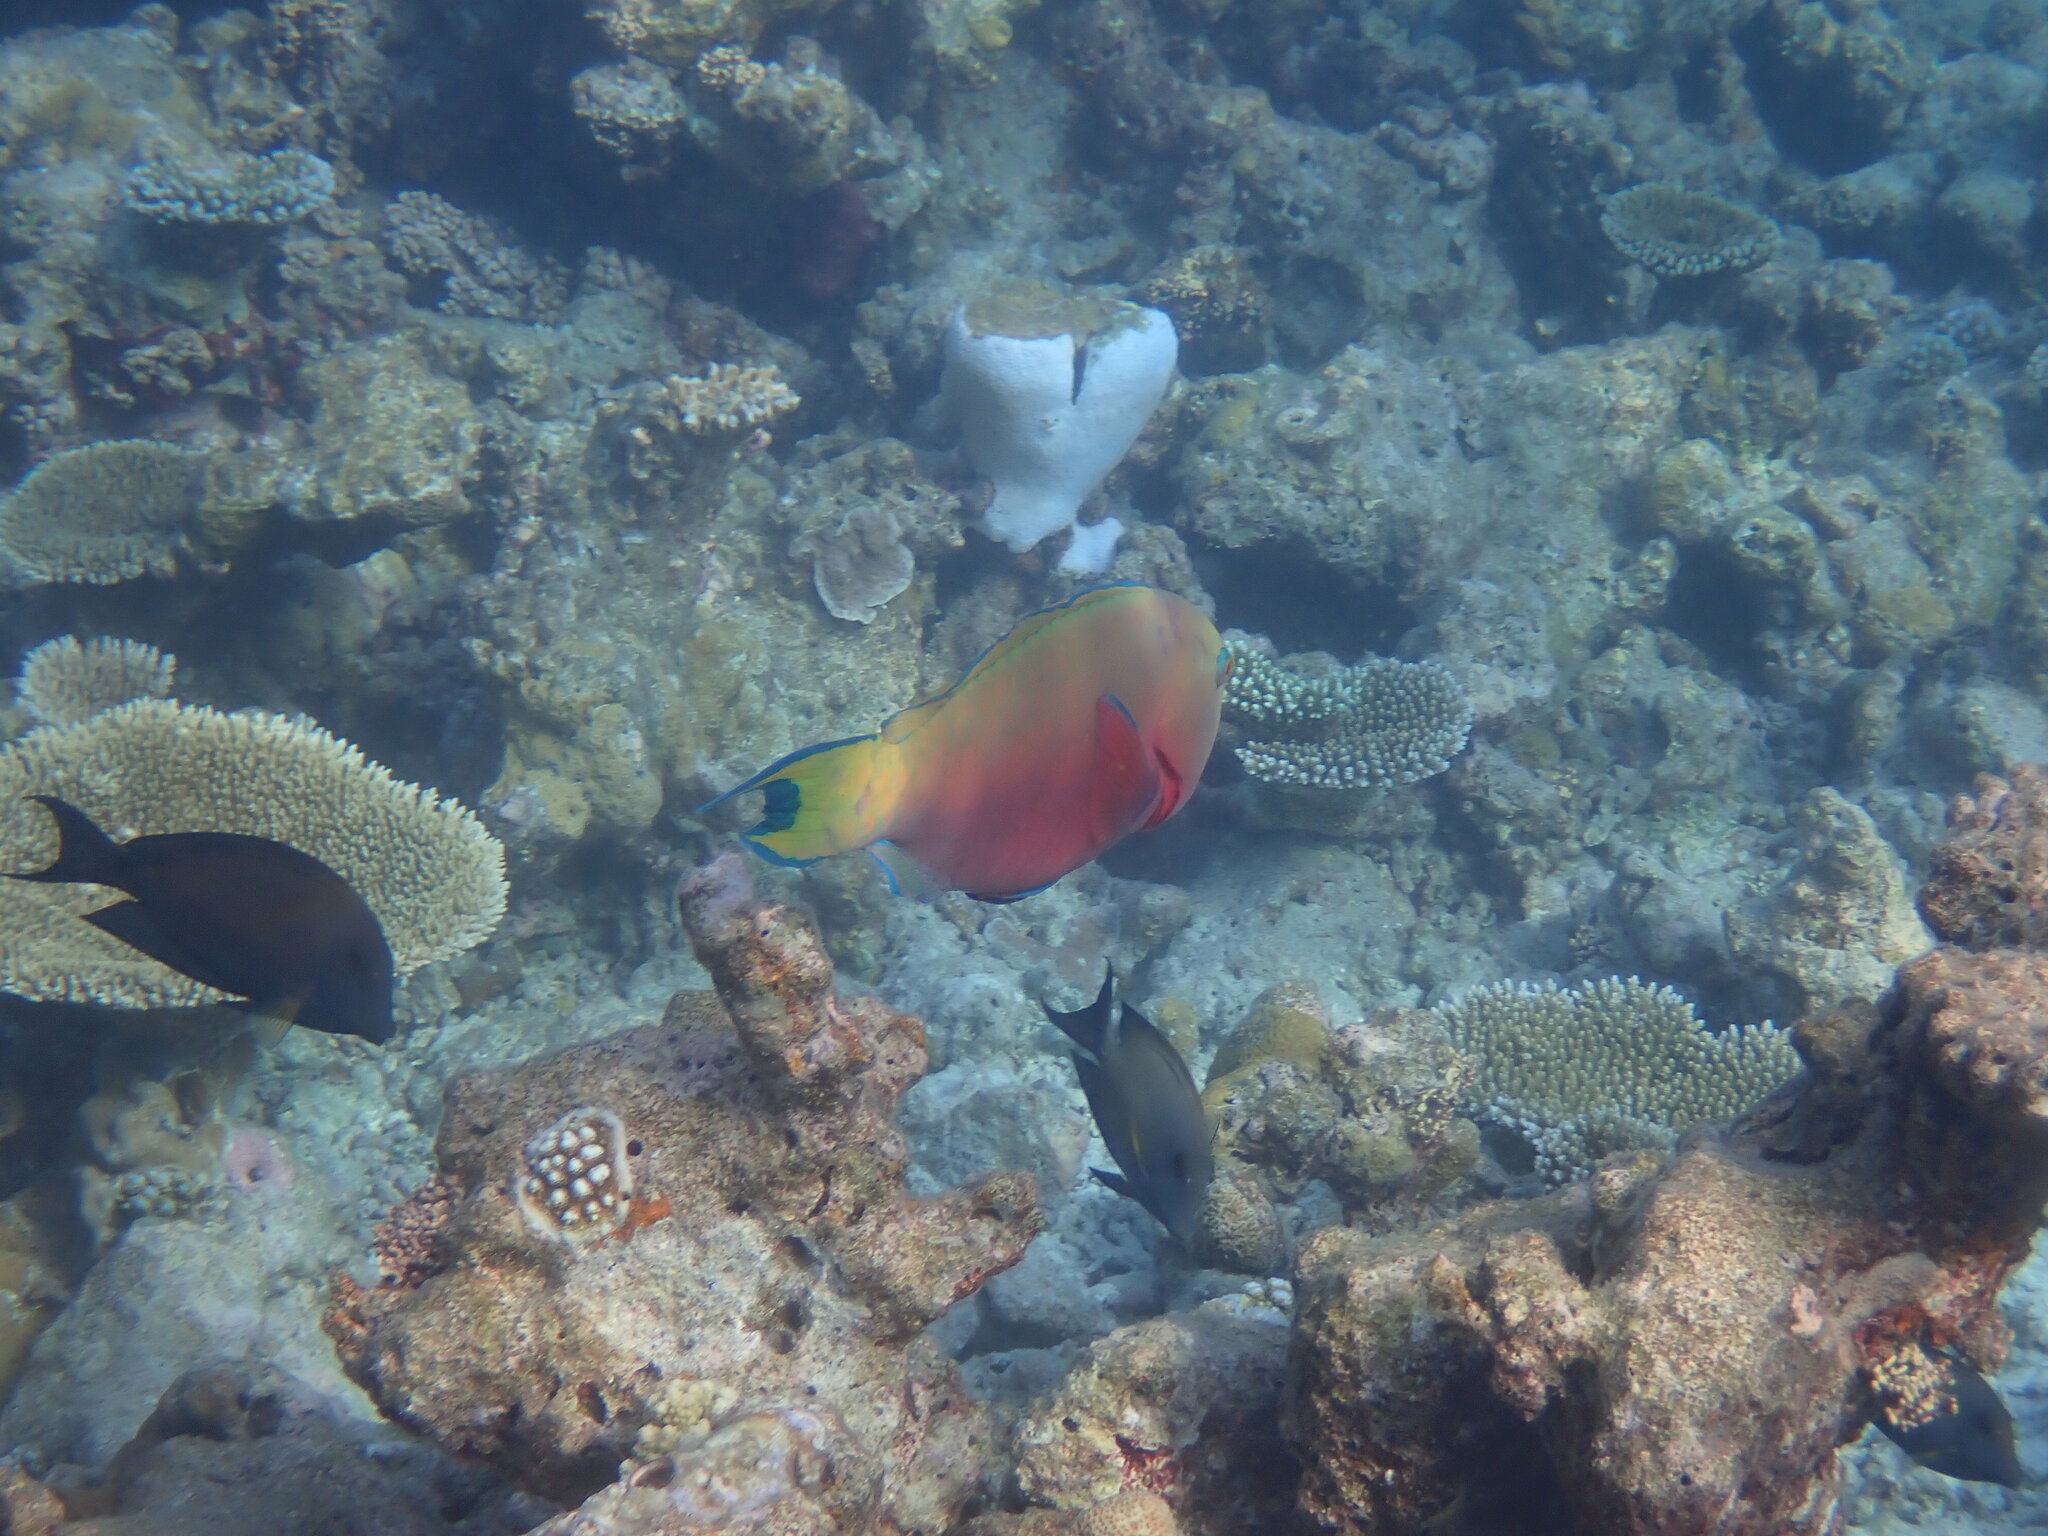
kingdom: Animalia
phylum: Chordata
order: Perciformes
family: Scaridae
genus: Chlorurus
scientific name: Chlorurus strongylocephalus
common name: Steephead parrotfish
